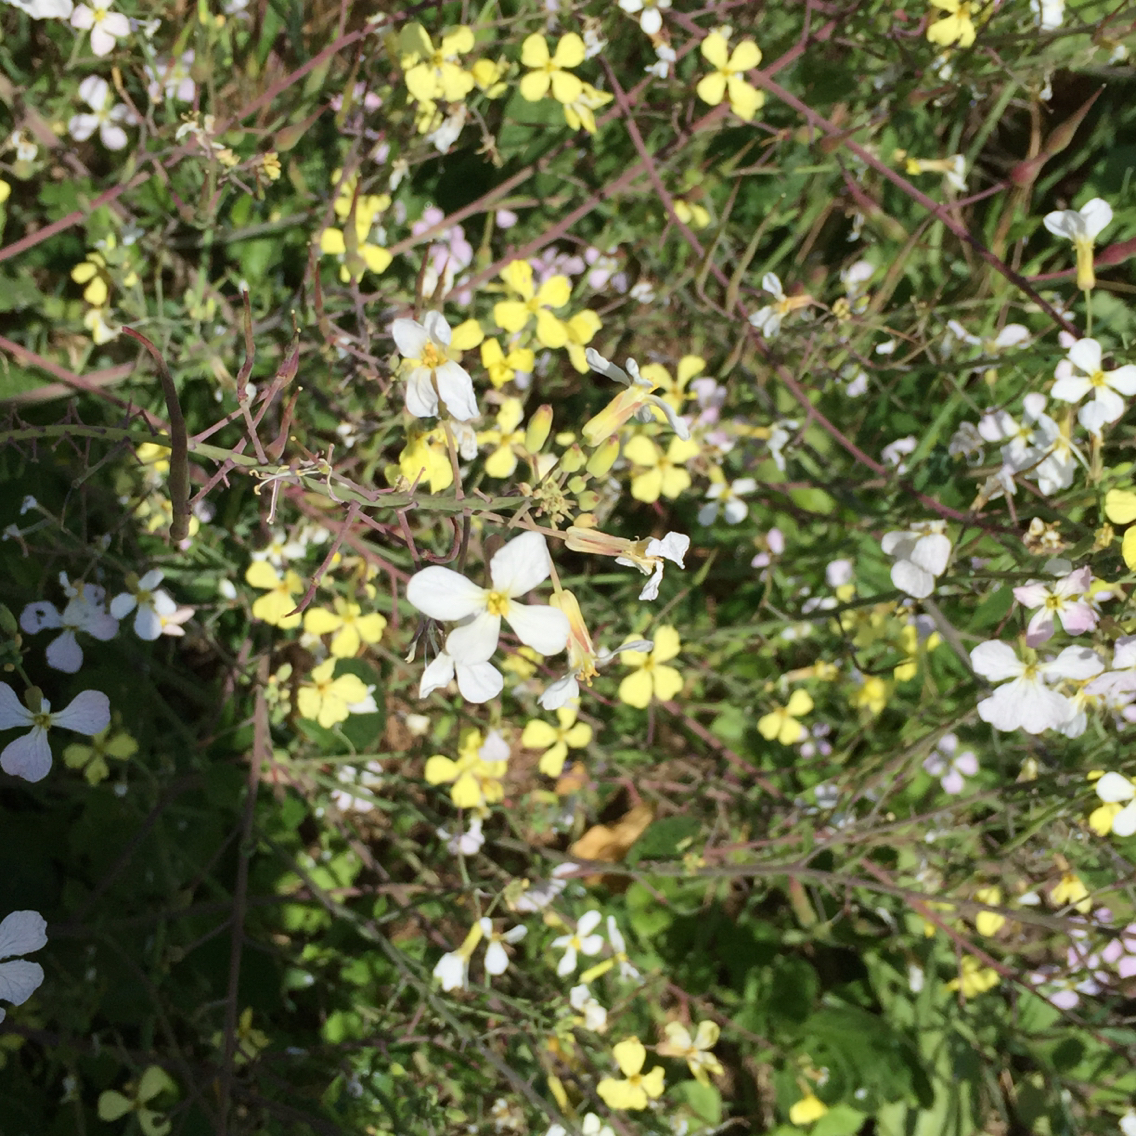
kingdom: Plantae
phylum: Tracheophyta
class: Magnoliopsida
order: Brassicales
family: Brassicaceae
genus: Raphanus
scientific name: Raphanus raphanistrum
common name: Wild radish
